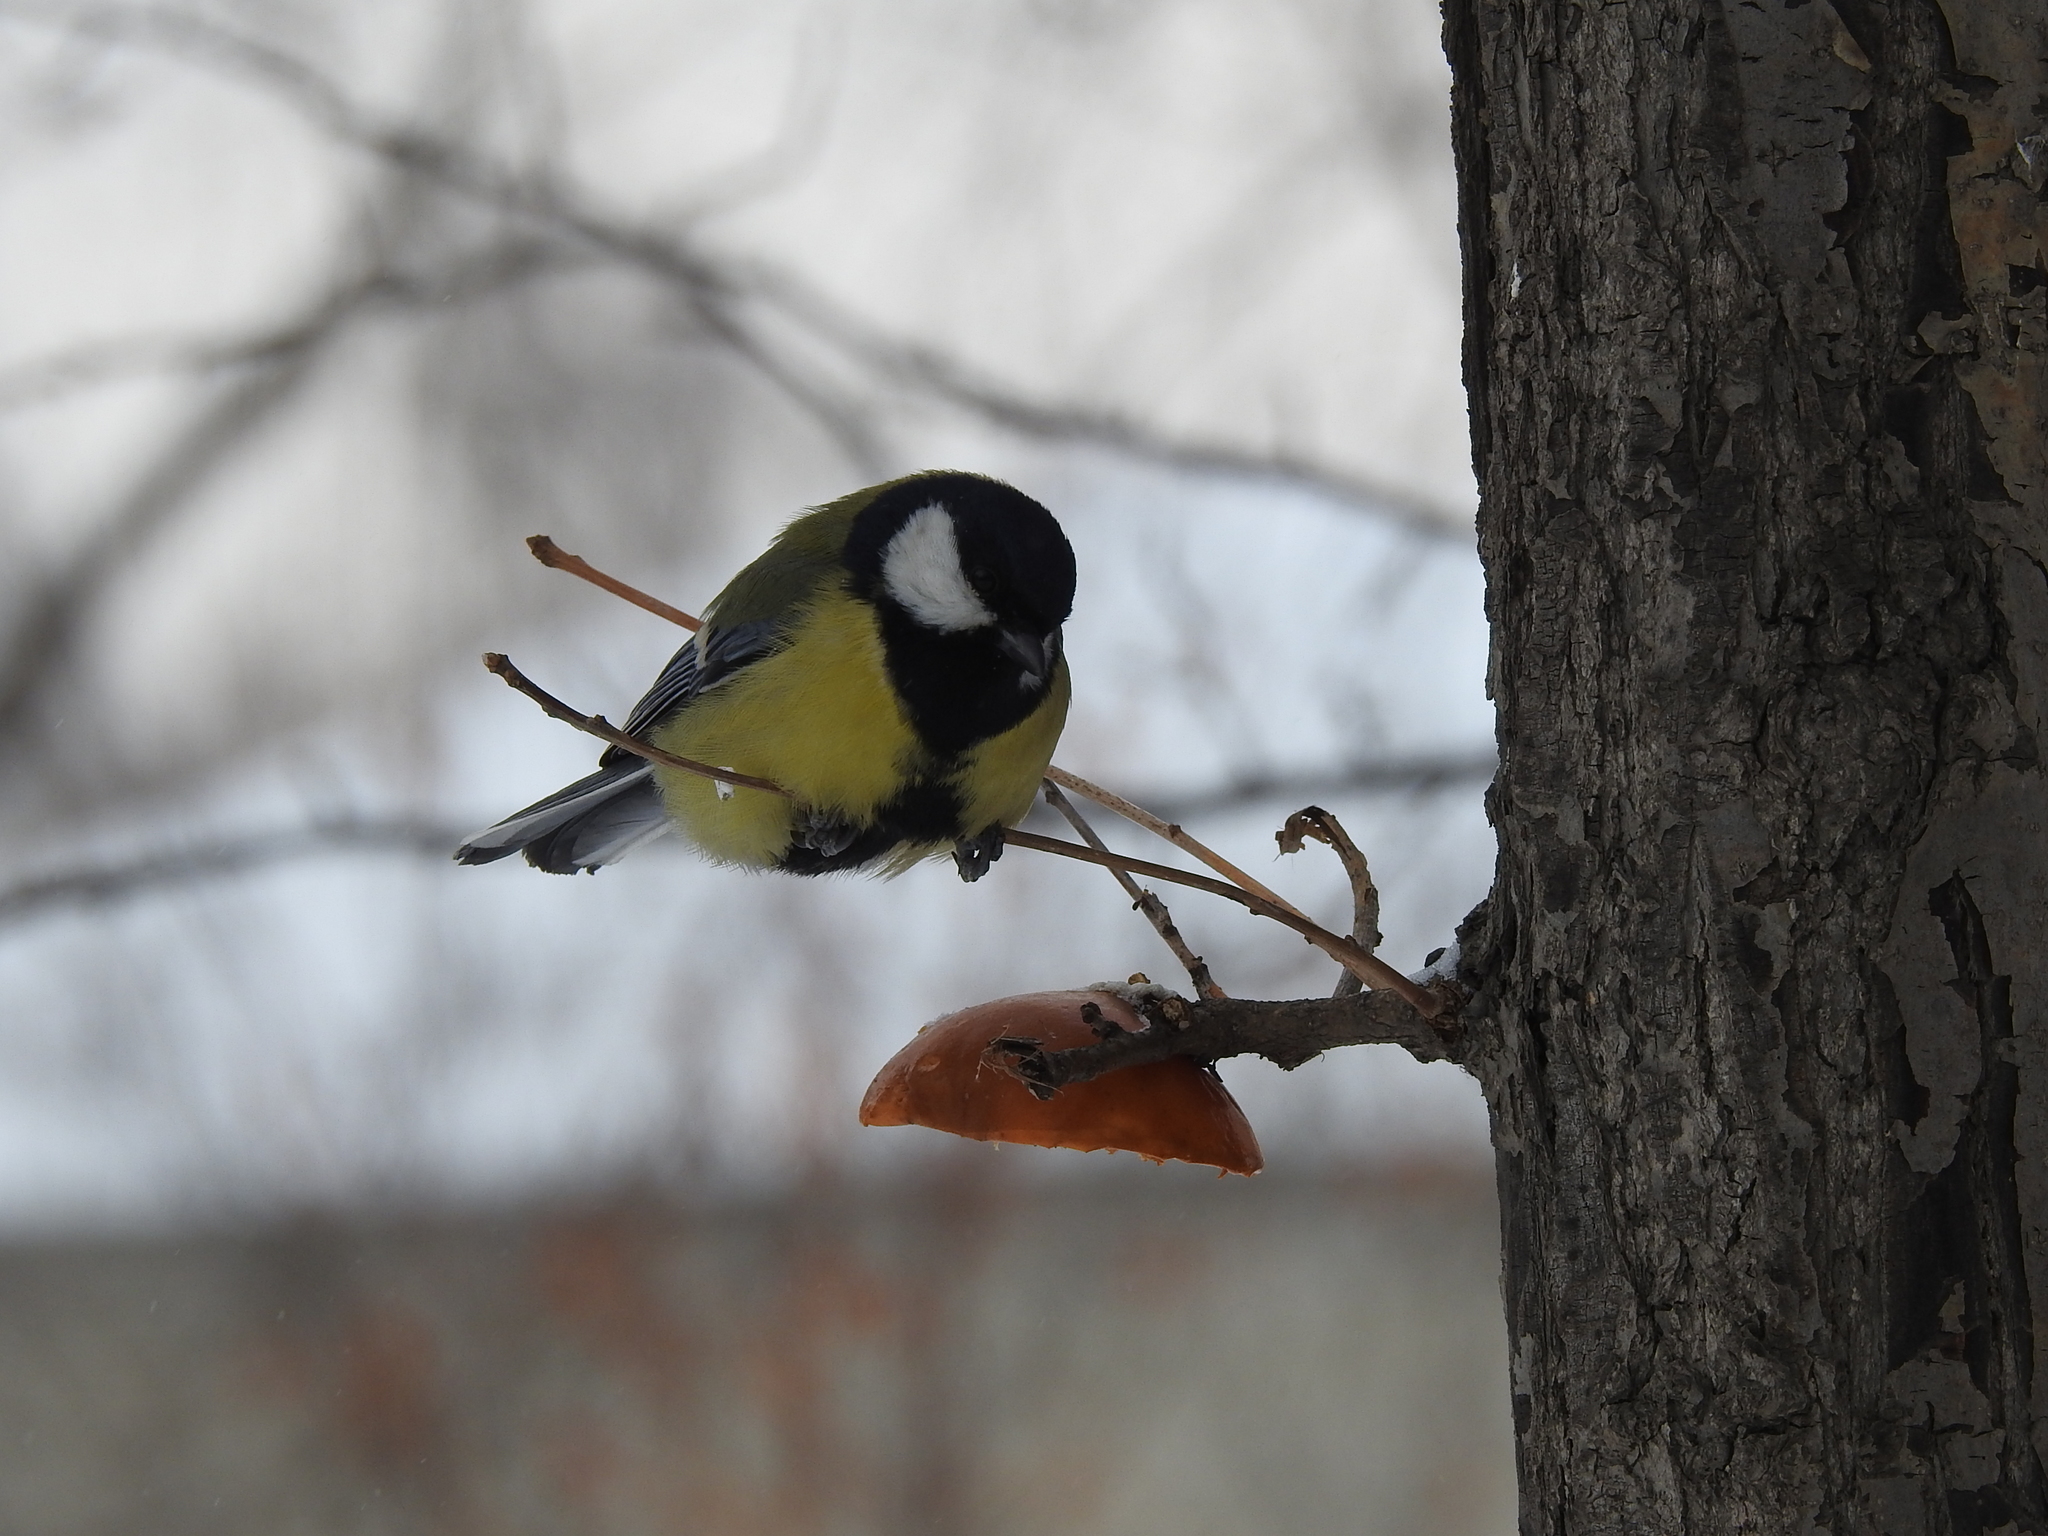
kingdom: Animalia
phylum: Chordata
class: Aves
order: Passeriformes
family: Paridae
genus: Parus
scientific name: Parus major
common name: Great tit
